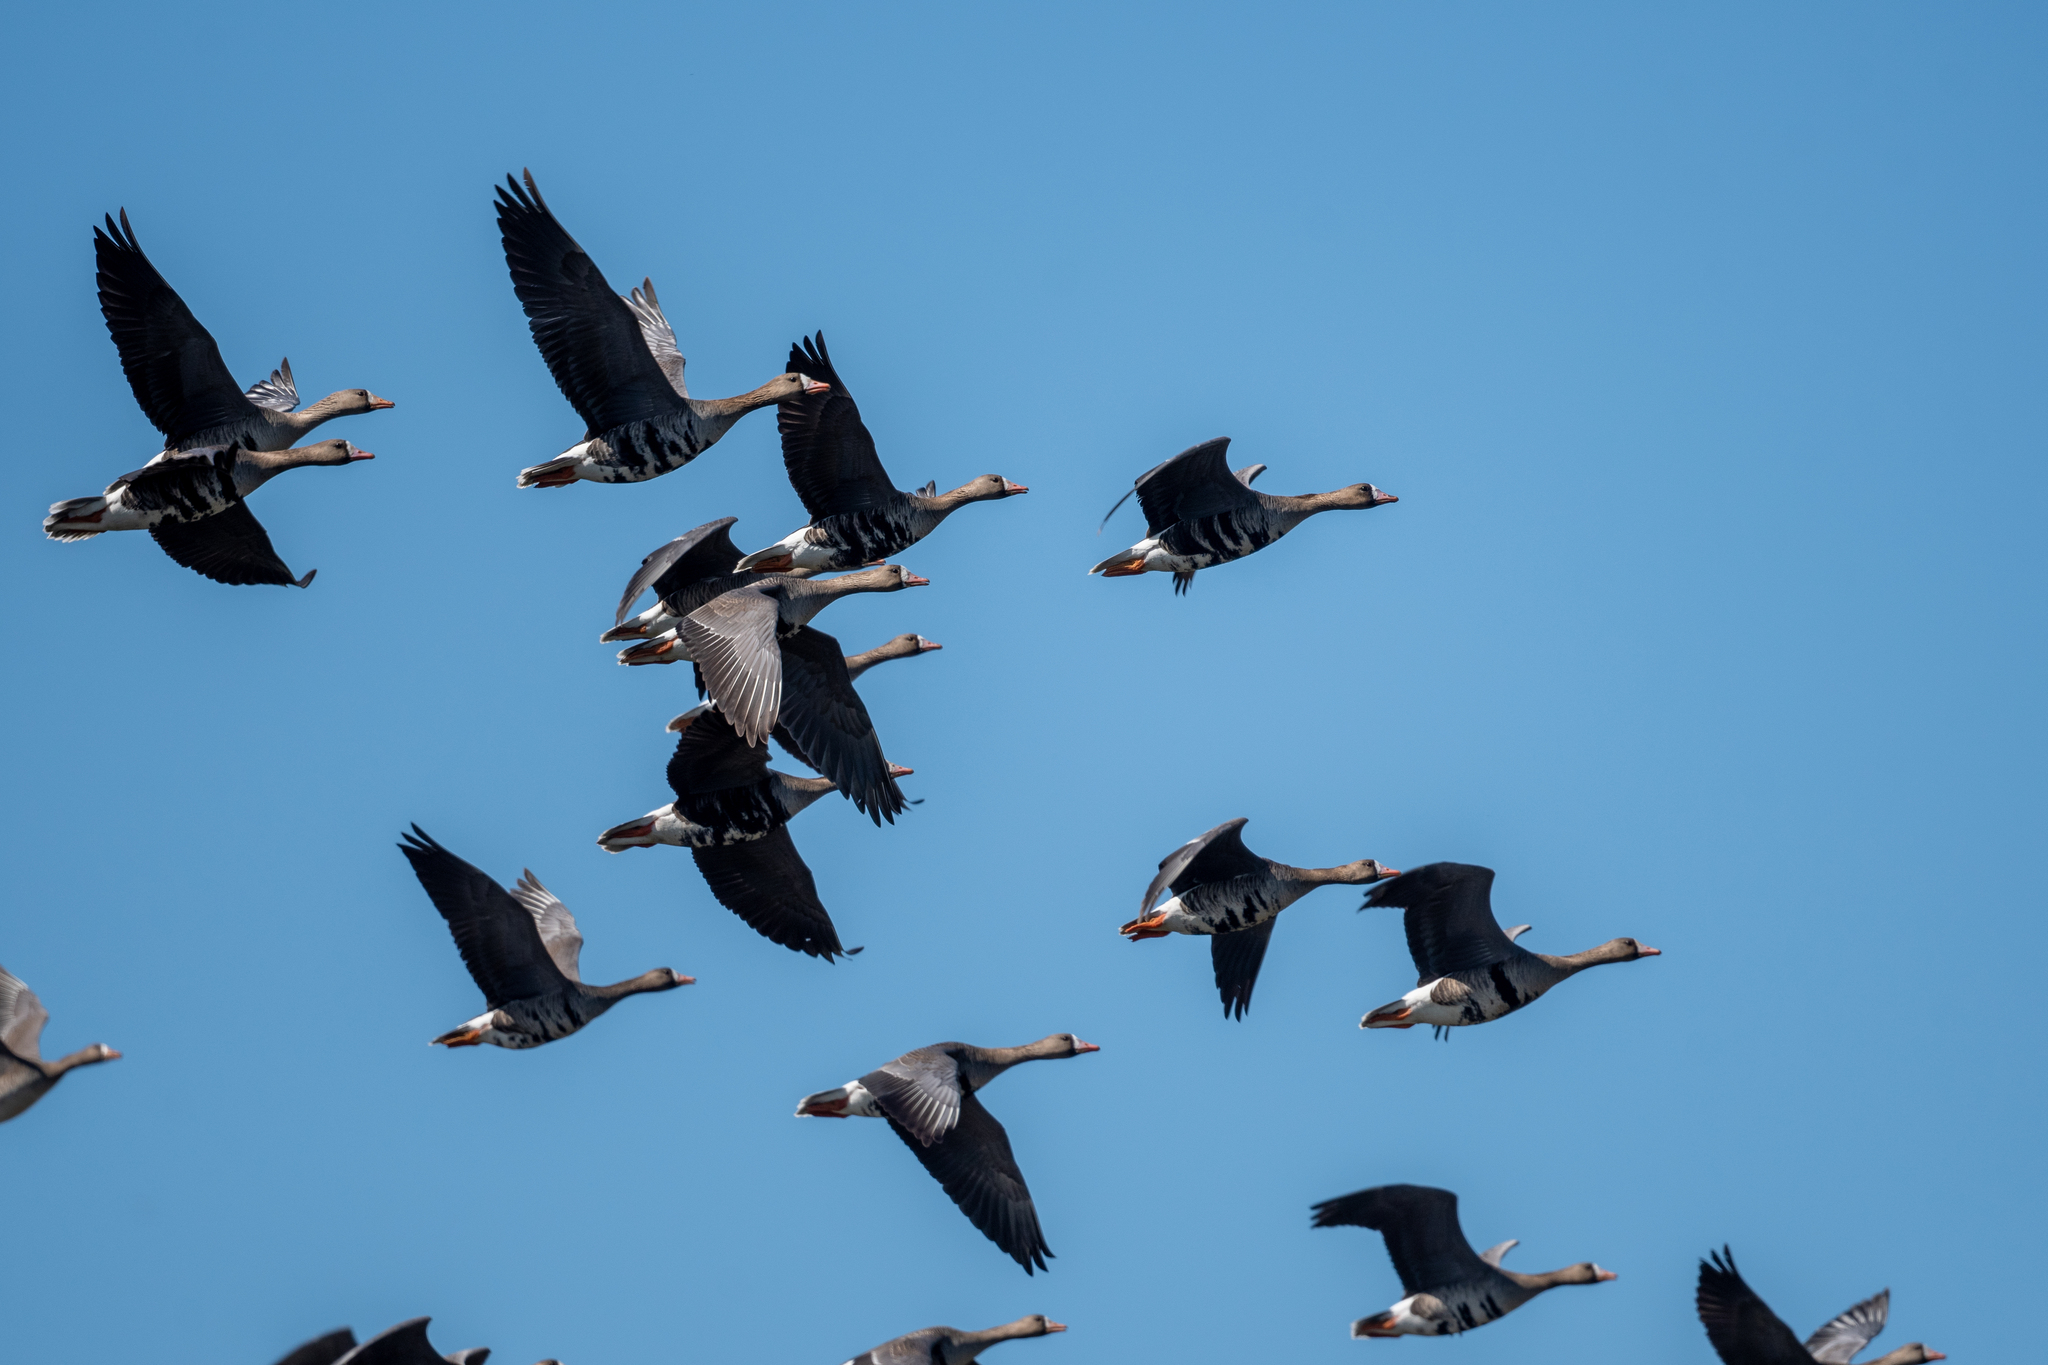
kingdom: Animalia
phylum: Chordata
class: Aves
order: Anseriformes
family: Anatidae
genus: Anser
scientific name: Anser albifrons
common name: Greater white-fronted goose
